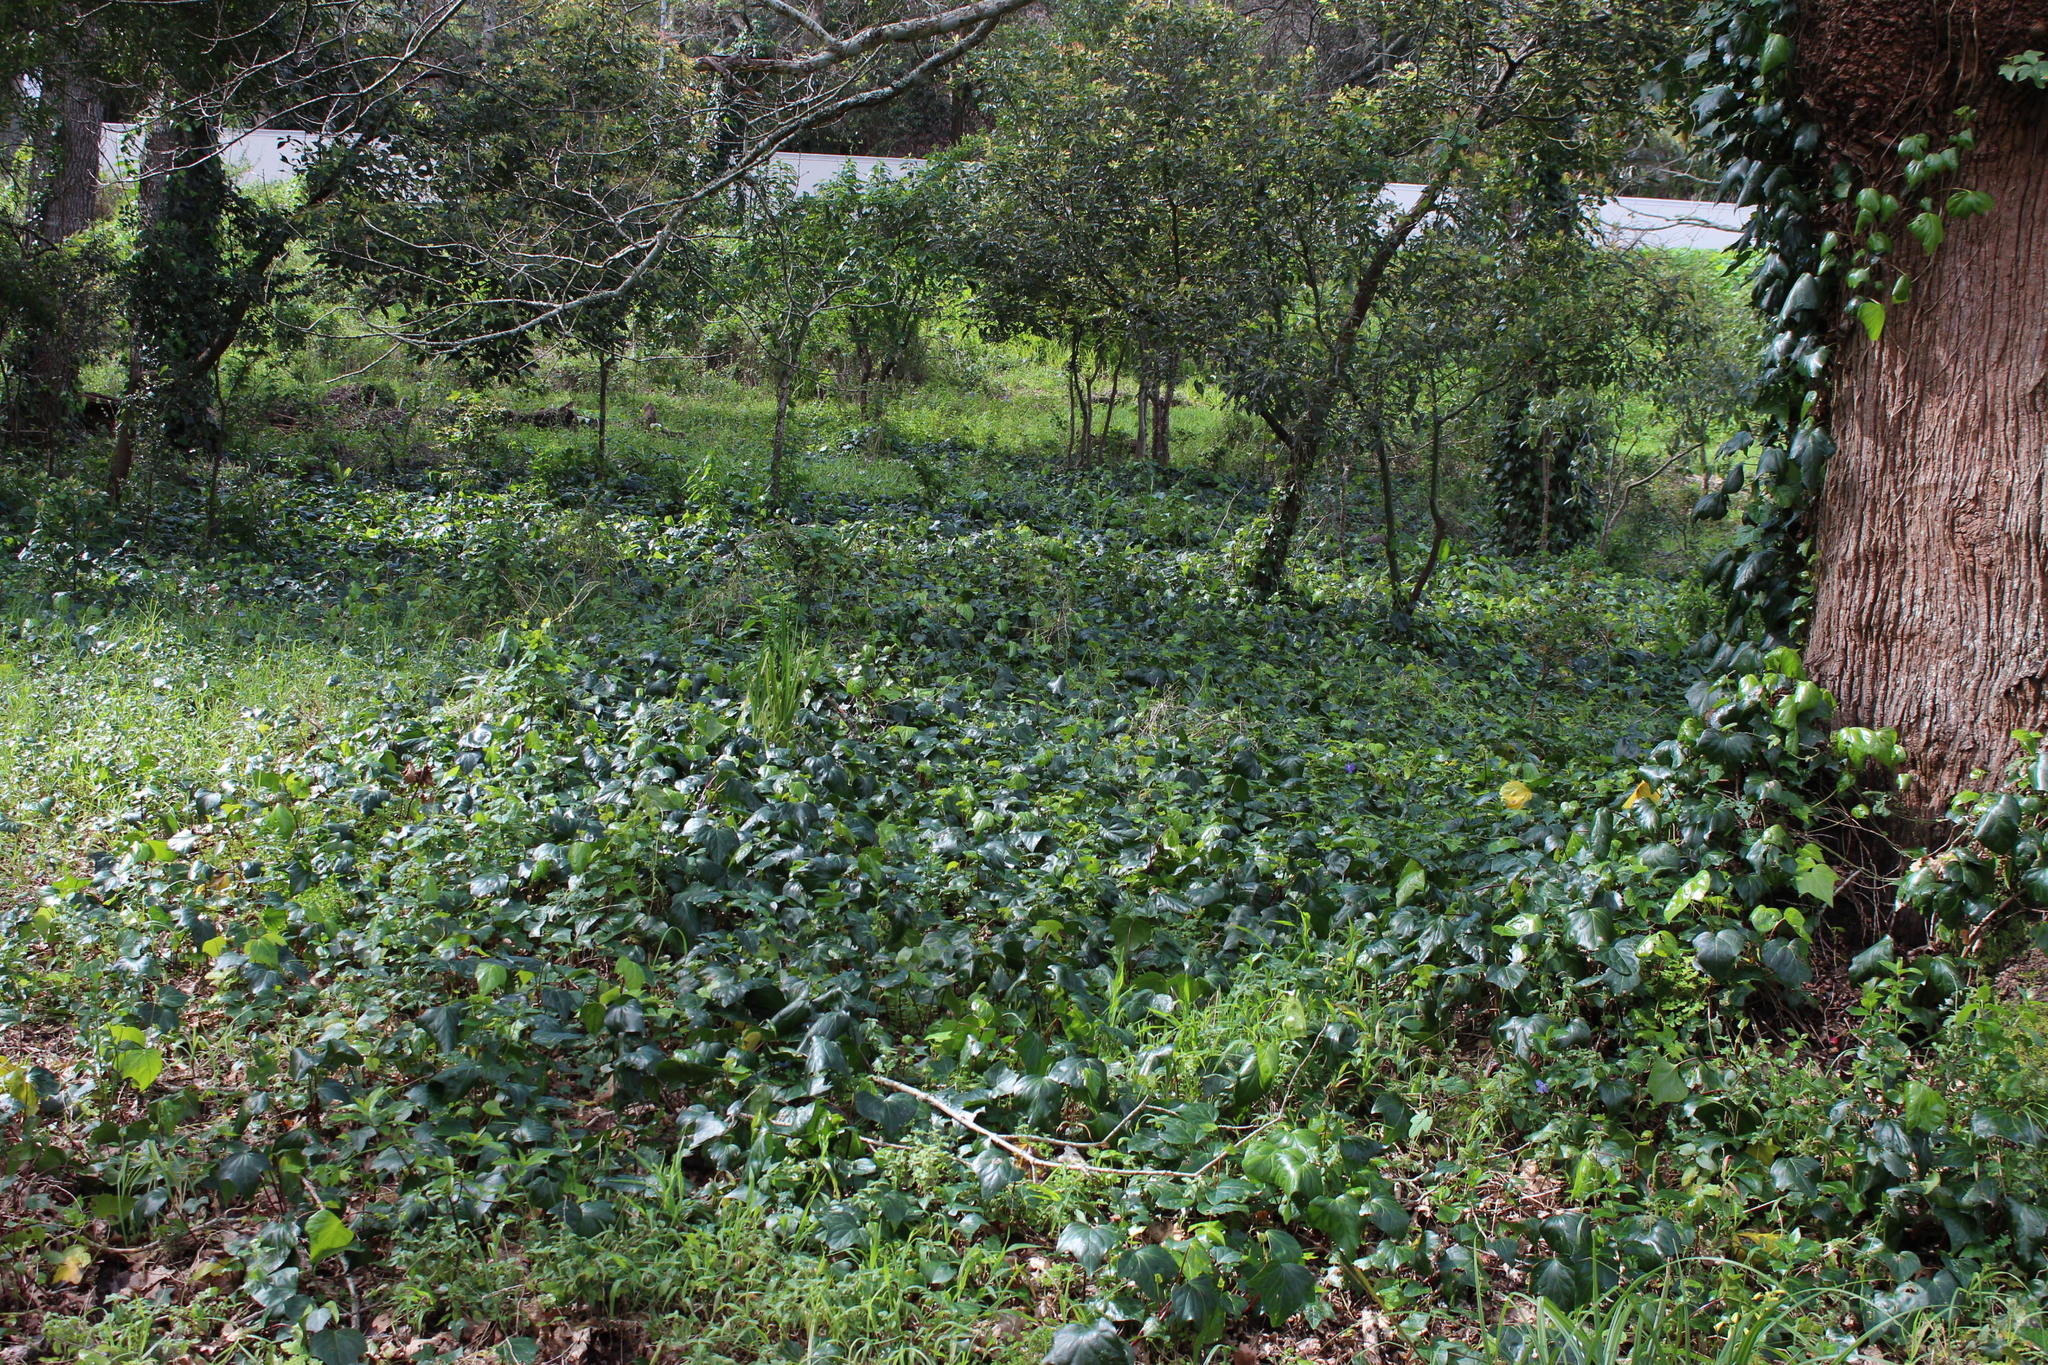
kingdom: Plantae
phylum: Tracheophyta
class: Magnoliopsida
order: Apiales
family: Araliaceae
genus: Hedera
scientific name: Hedera helix
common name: Ivy
